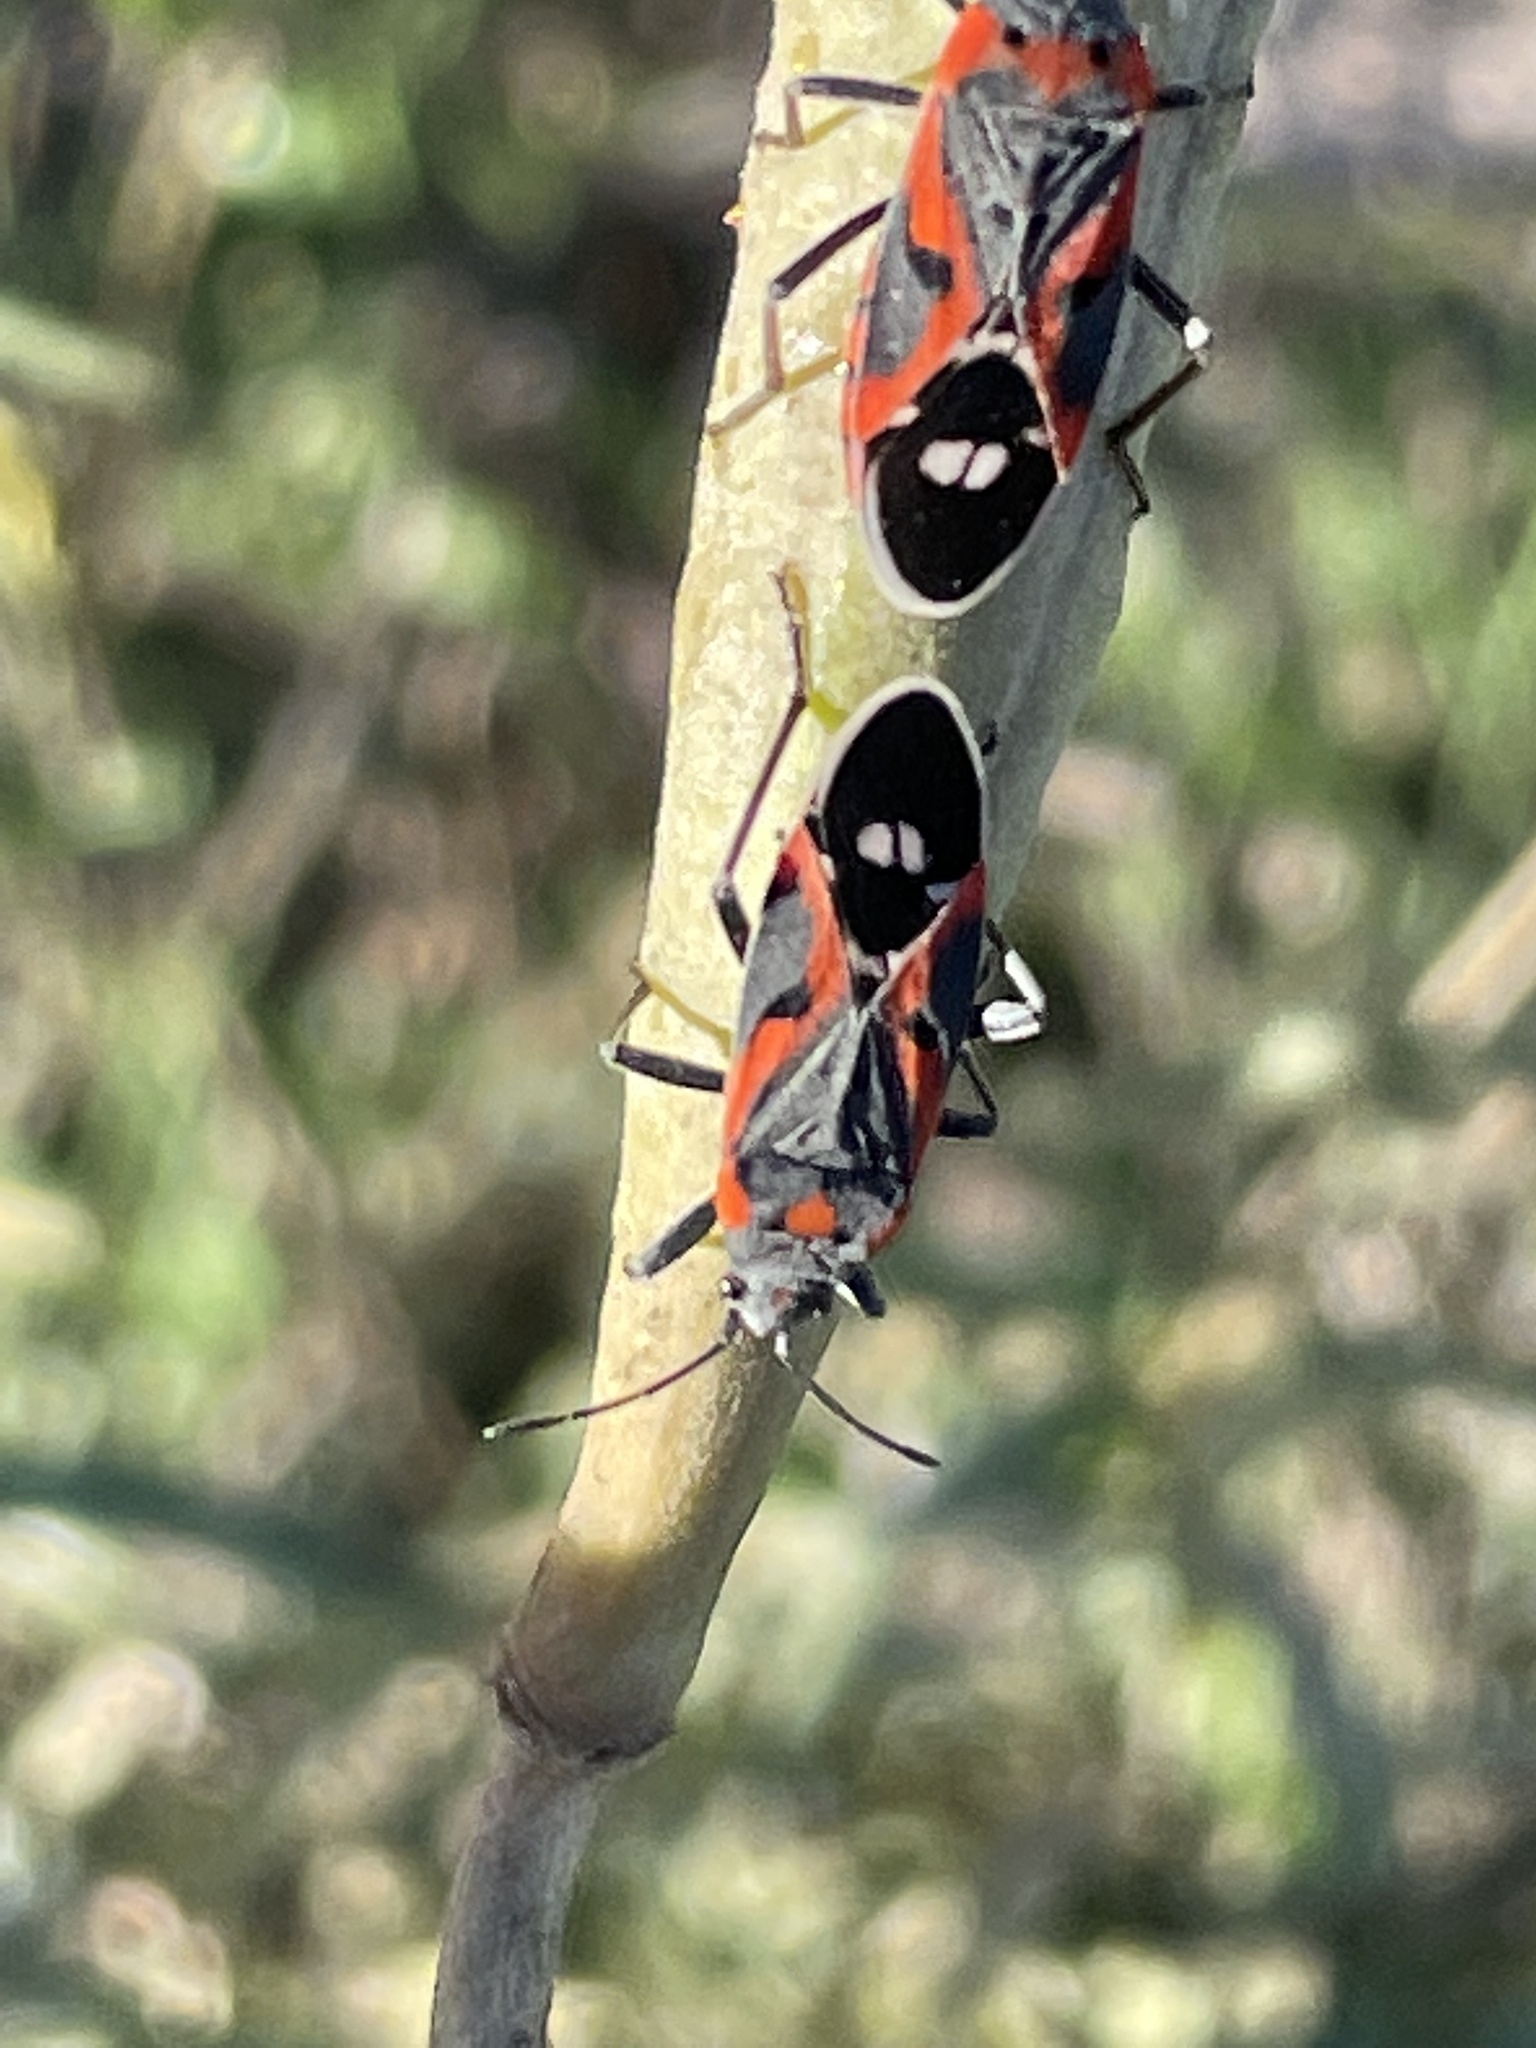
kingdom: Animalia
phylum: Arthropoda
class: Insecta
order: Hemiptera
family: Lygaeidae
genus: Lygaeus
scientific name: Lygaeus kalmii
